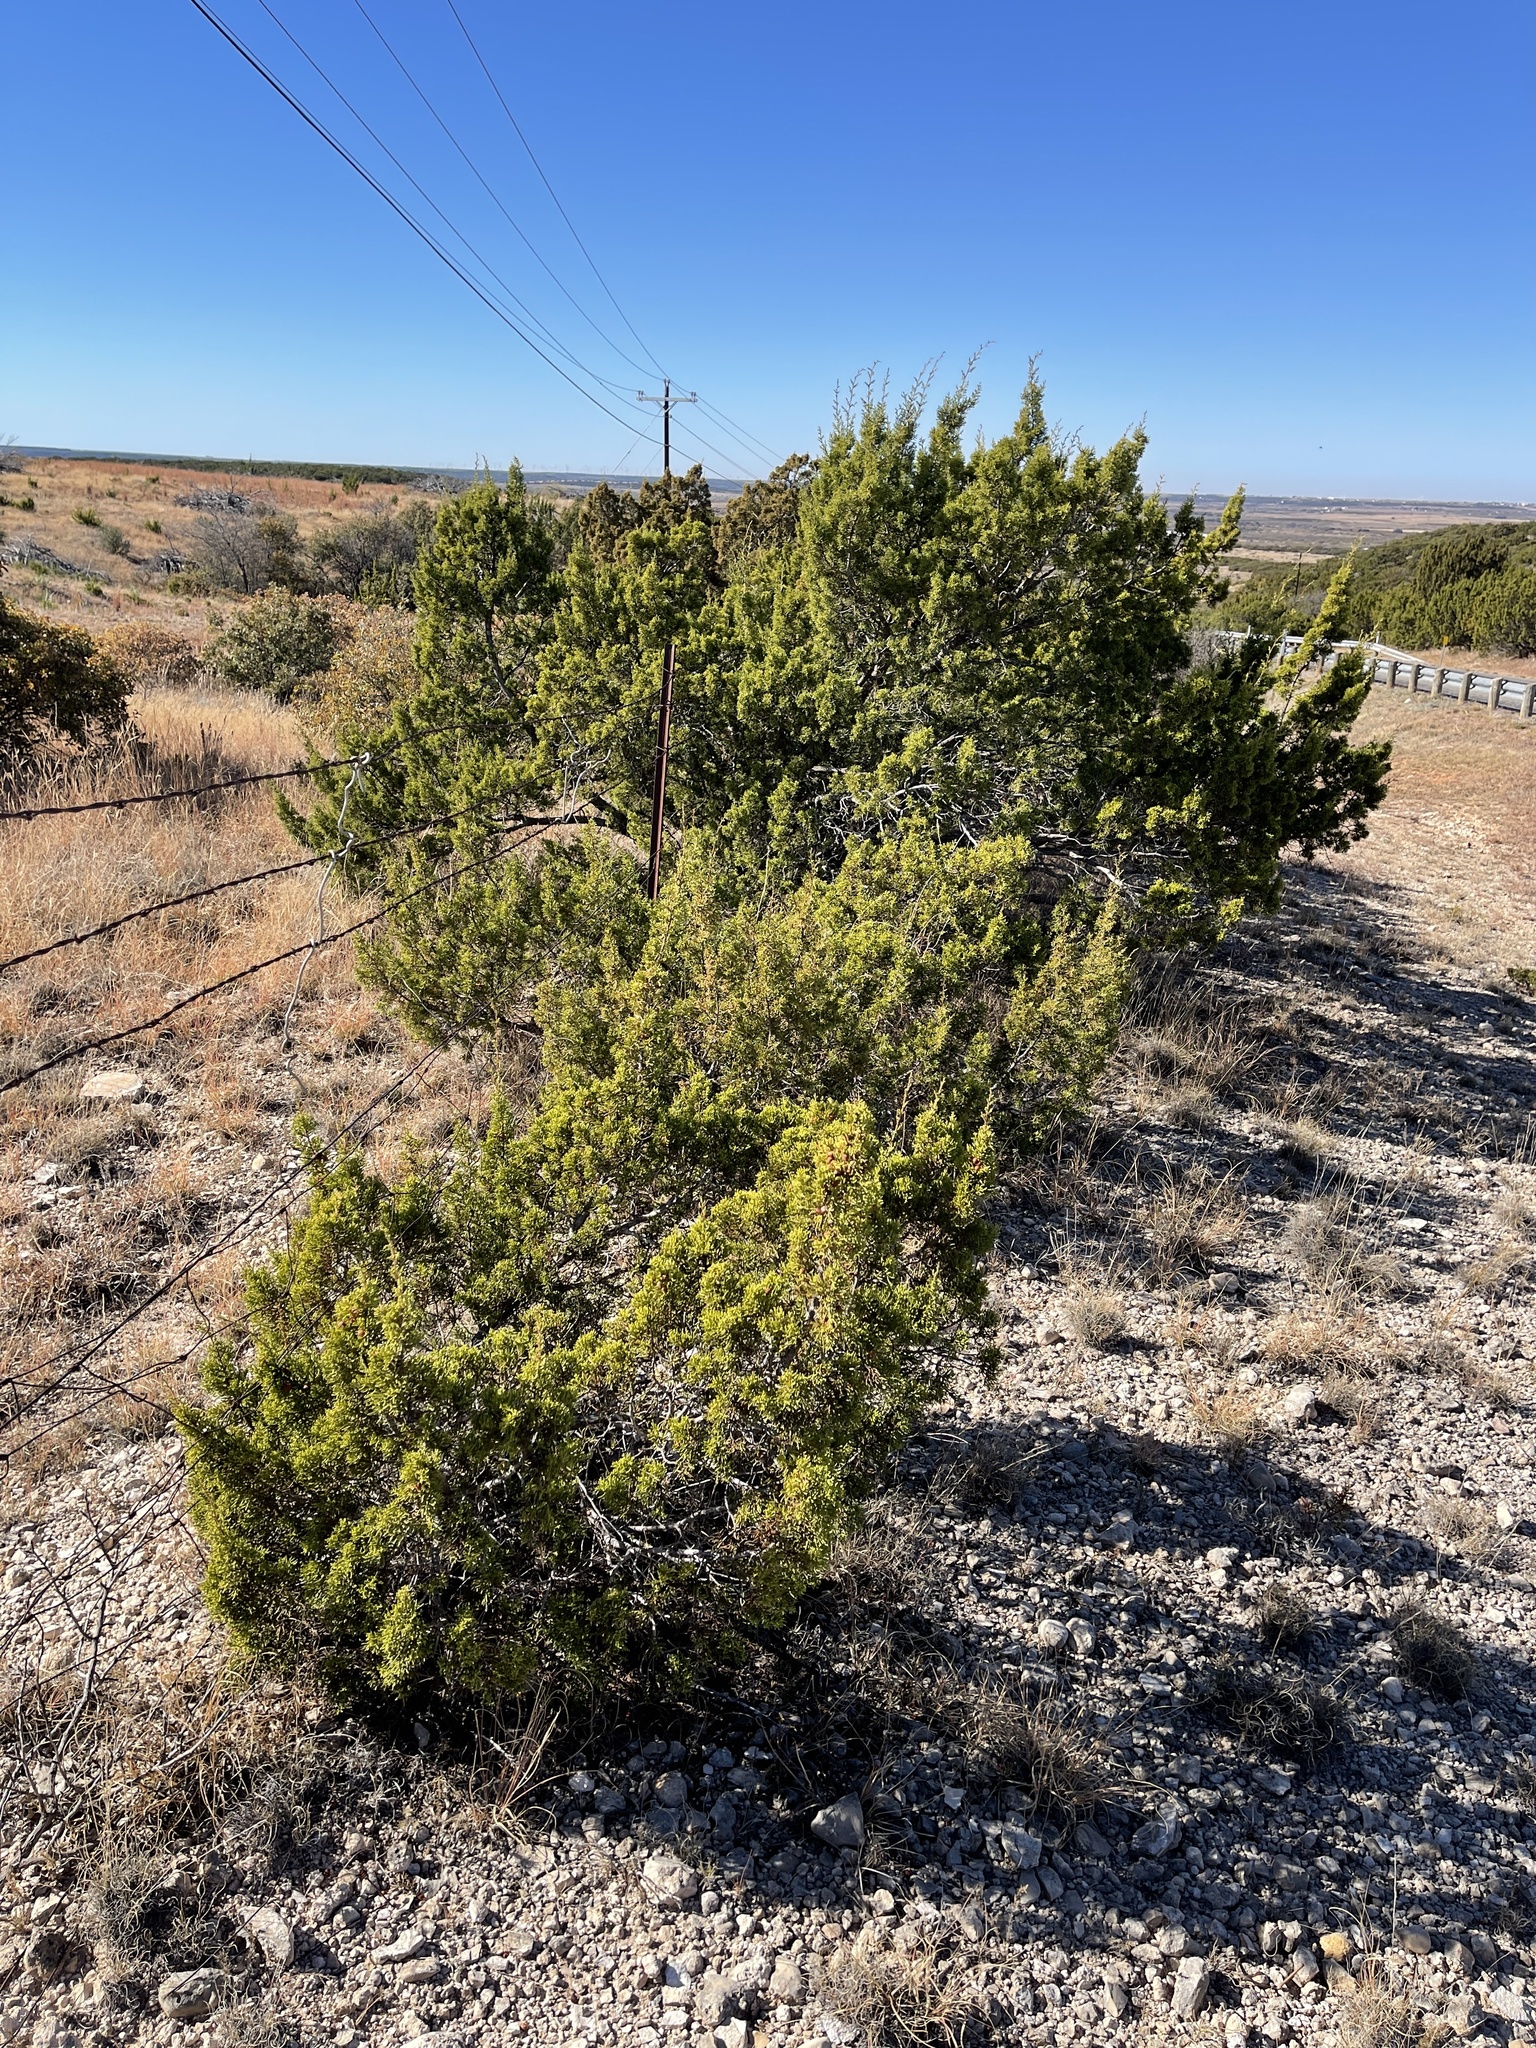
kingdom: Plantae
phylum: Tracheophyta
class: Pinopsida
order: Pinales
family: Cupressaceae
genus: Juniperus
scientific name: Juniperus pinchotii
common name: Pinchot juniper
